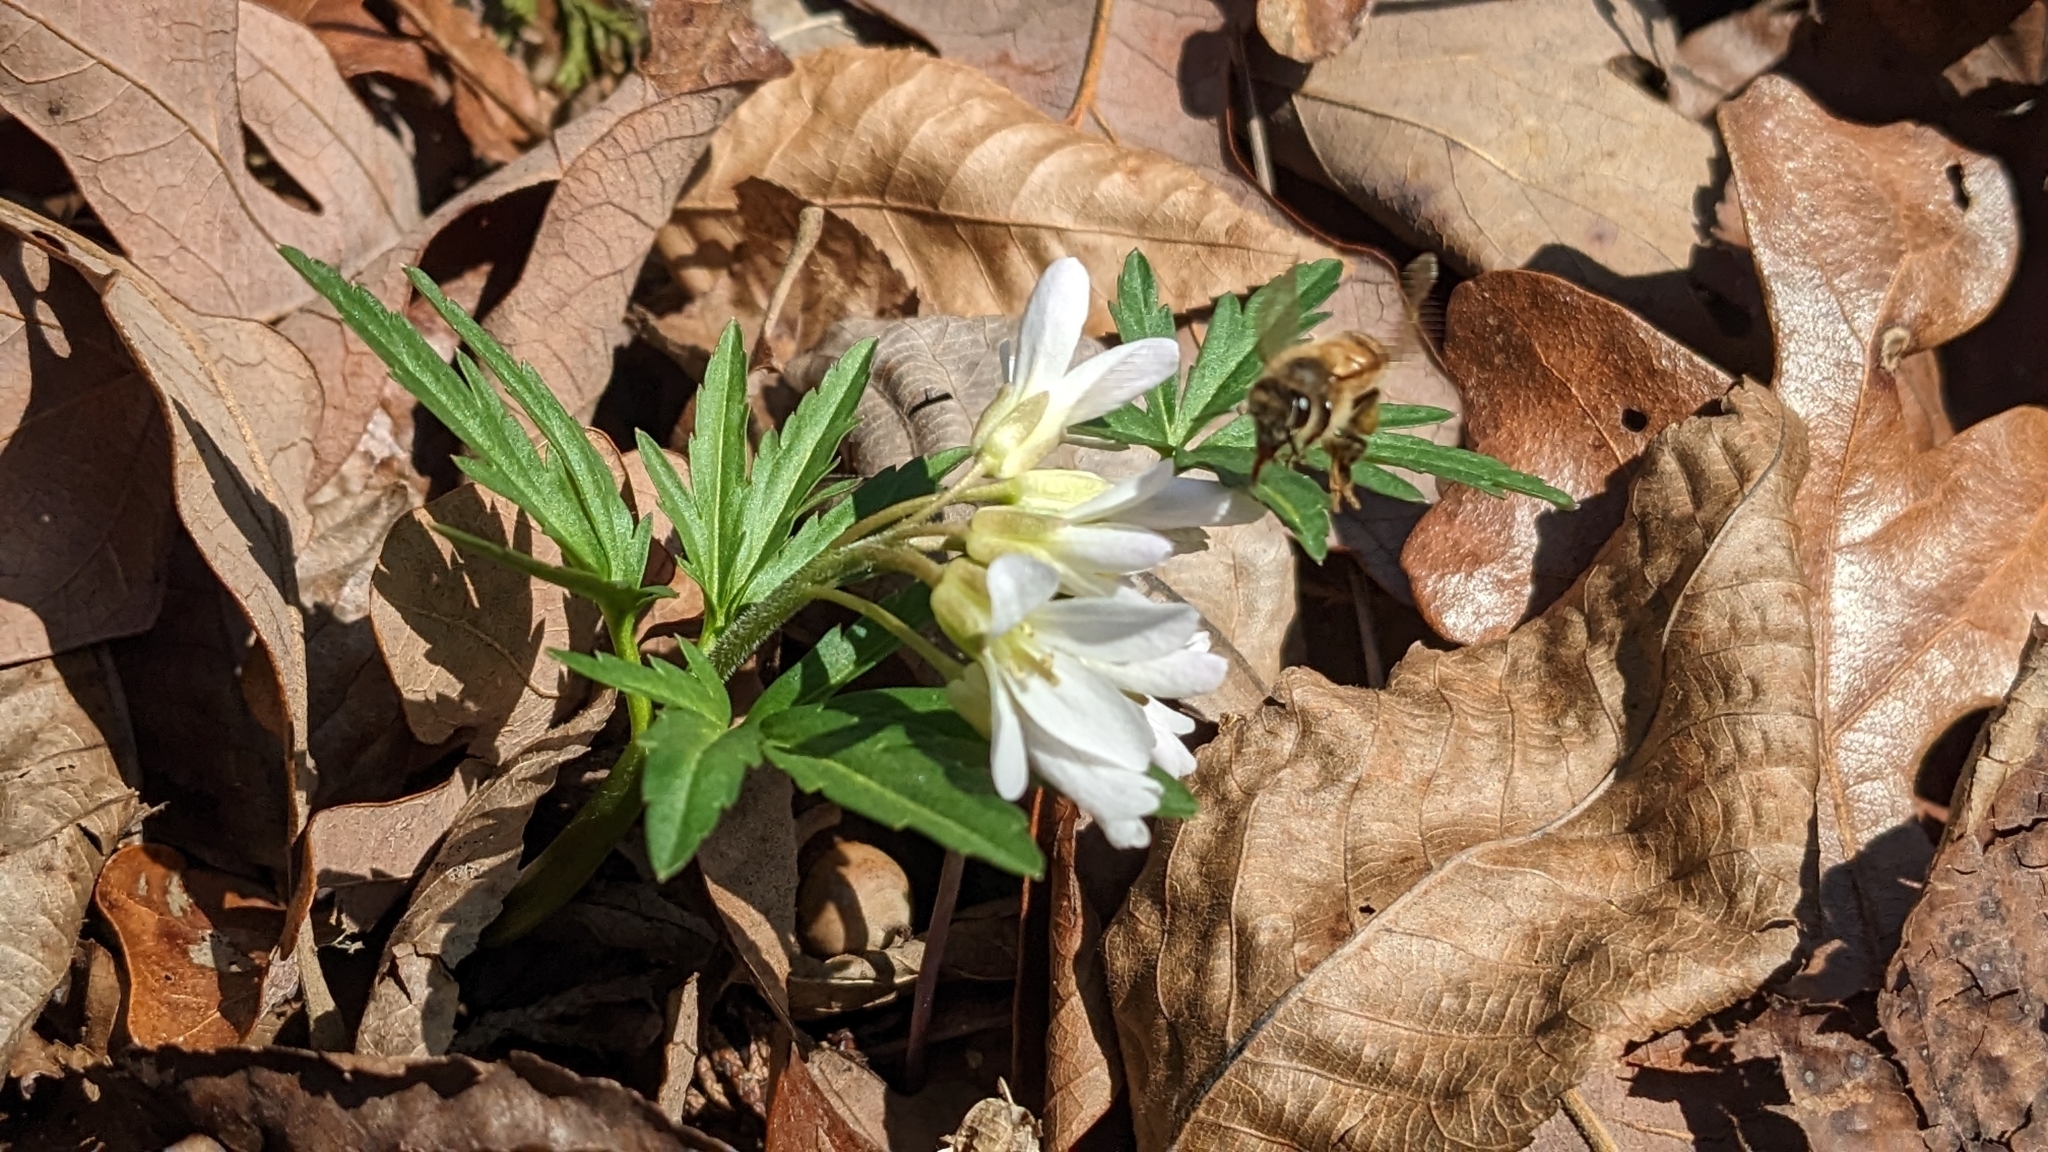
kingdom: Plantae
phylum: Tracheophyta
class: Magnoliopsida
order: Brassicales
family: Brassicaceae
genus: Cardamine
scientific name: Cardamine concatenata
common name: Cut-leaf toothcup
